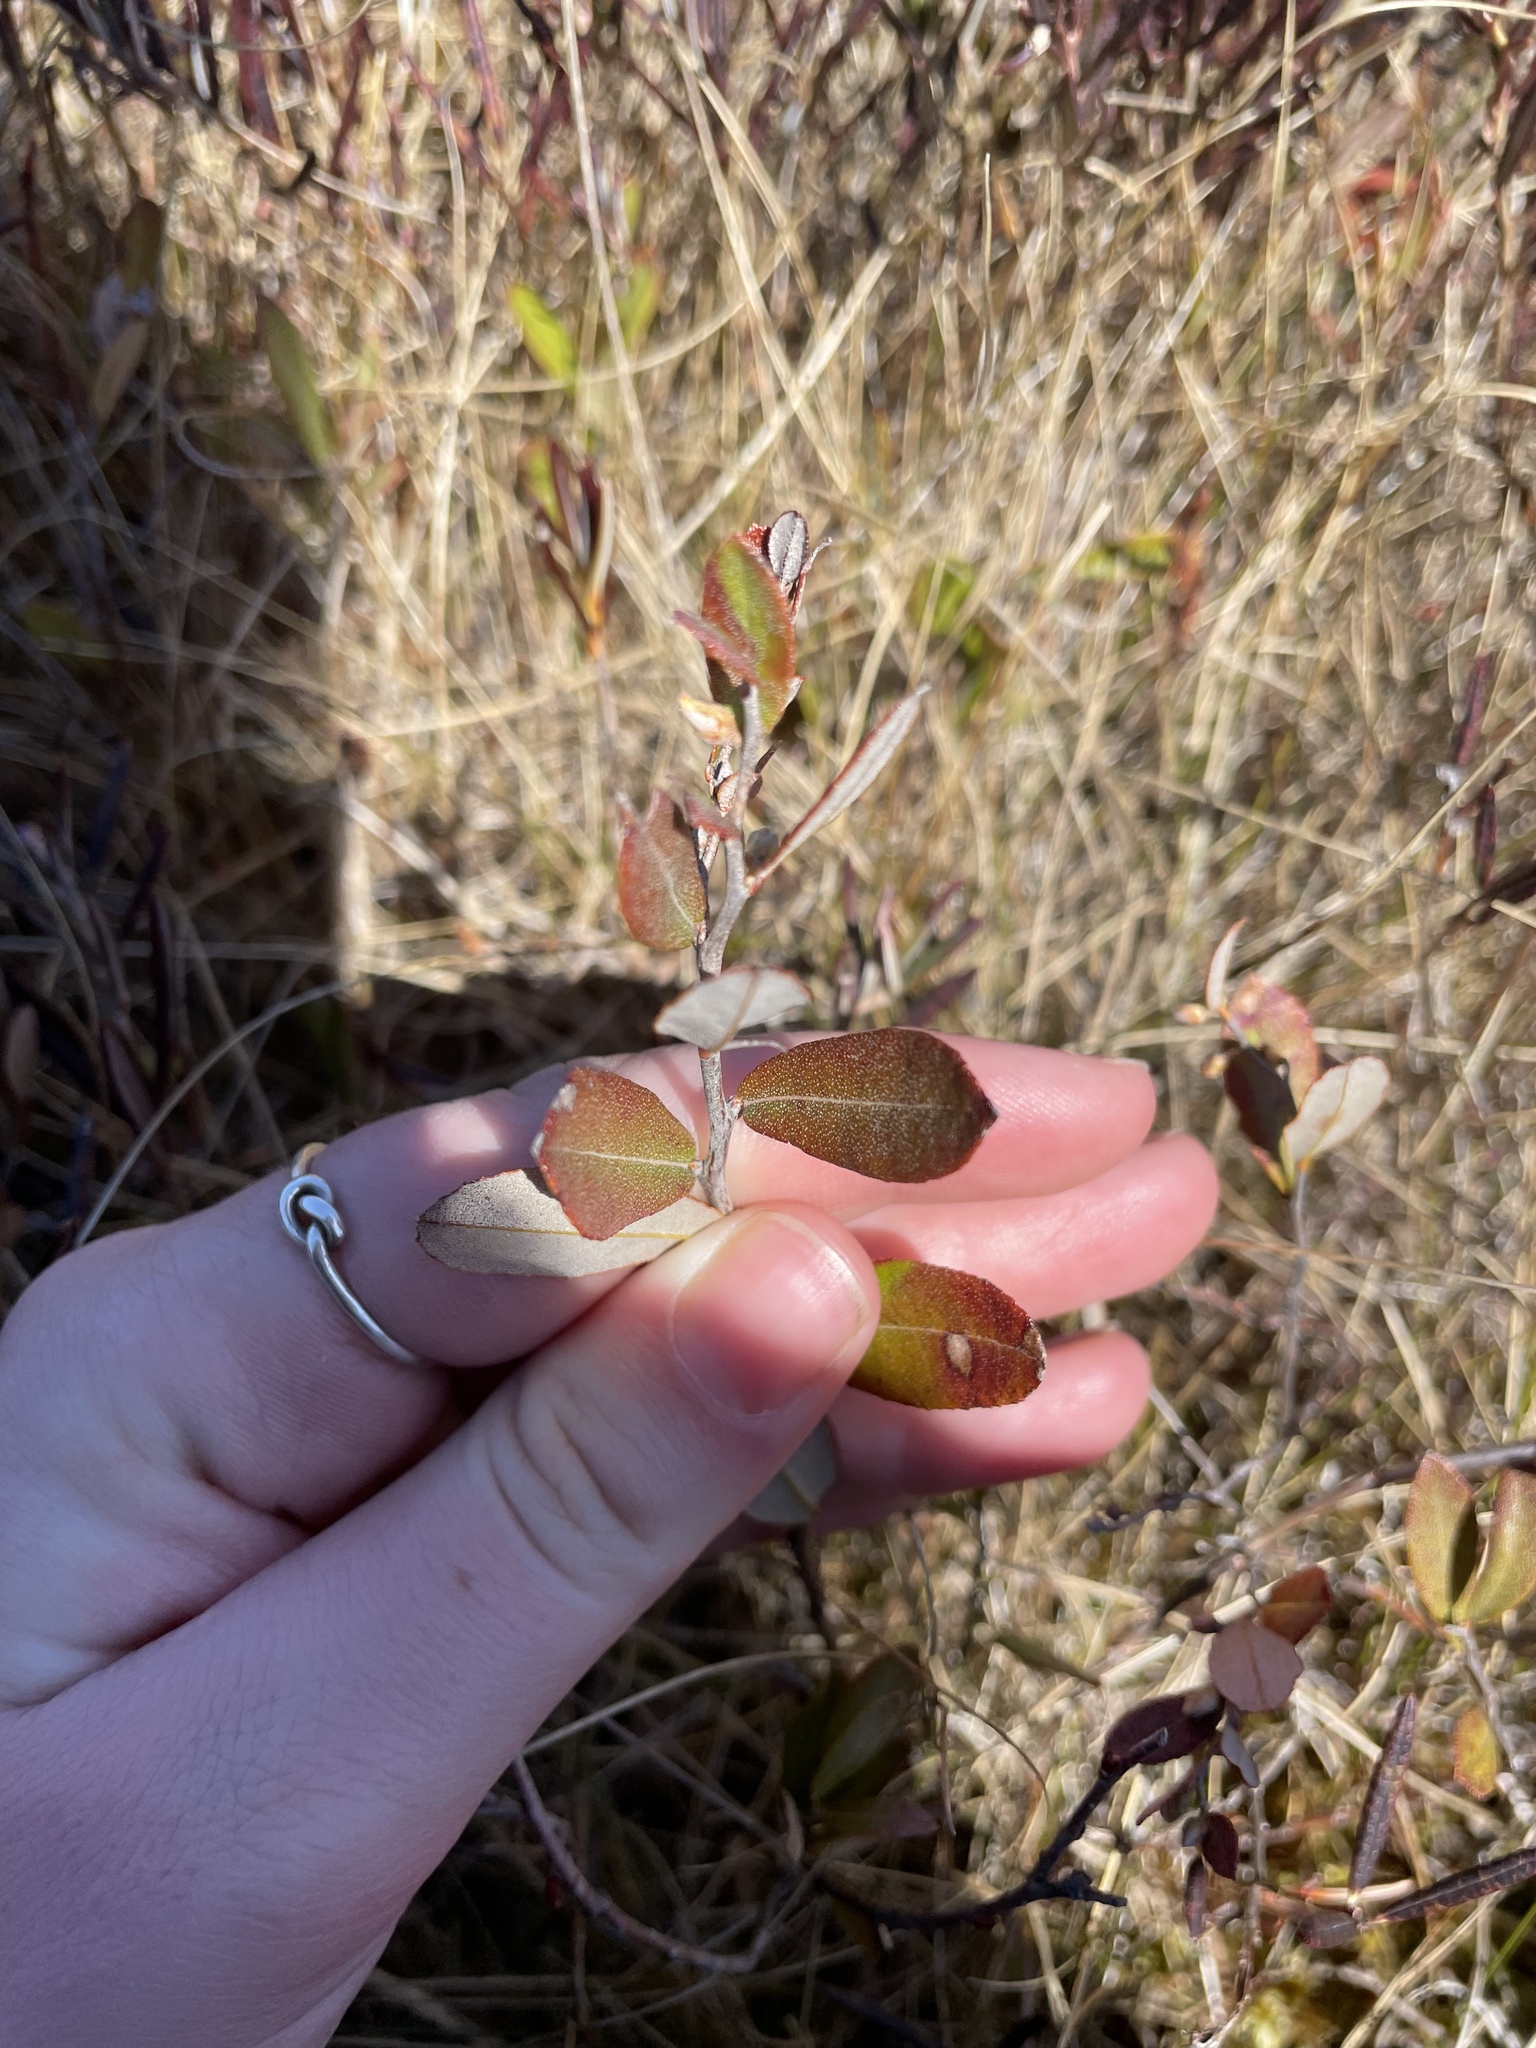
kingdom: Plantae
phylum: Tracheophyta
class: Magnoliopsida
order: Ericales
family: Ericaceae
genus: Chamaedaphne
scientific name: Chamaedaphne calyculata
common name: Leatherleaf
